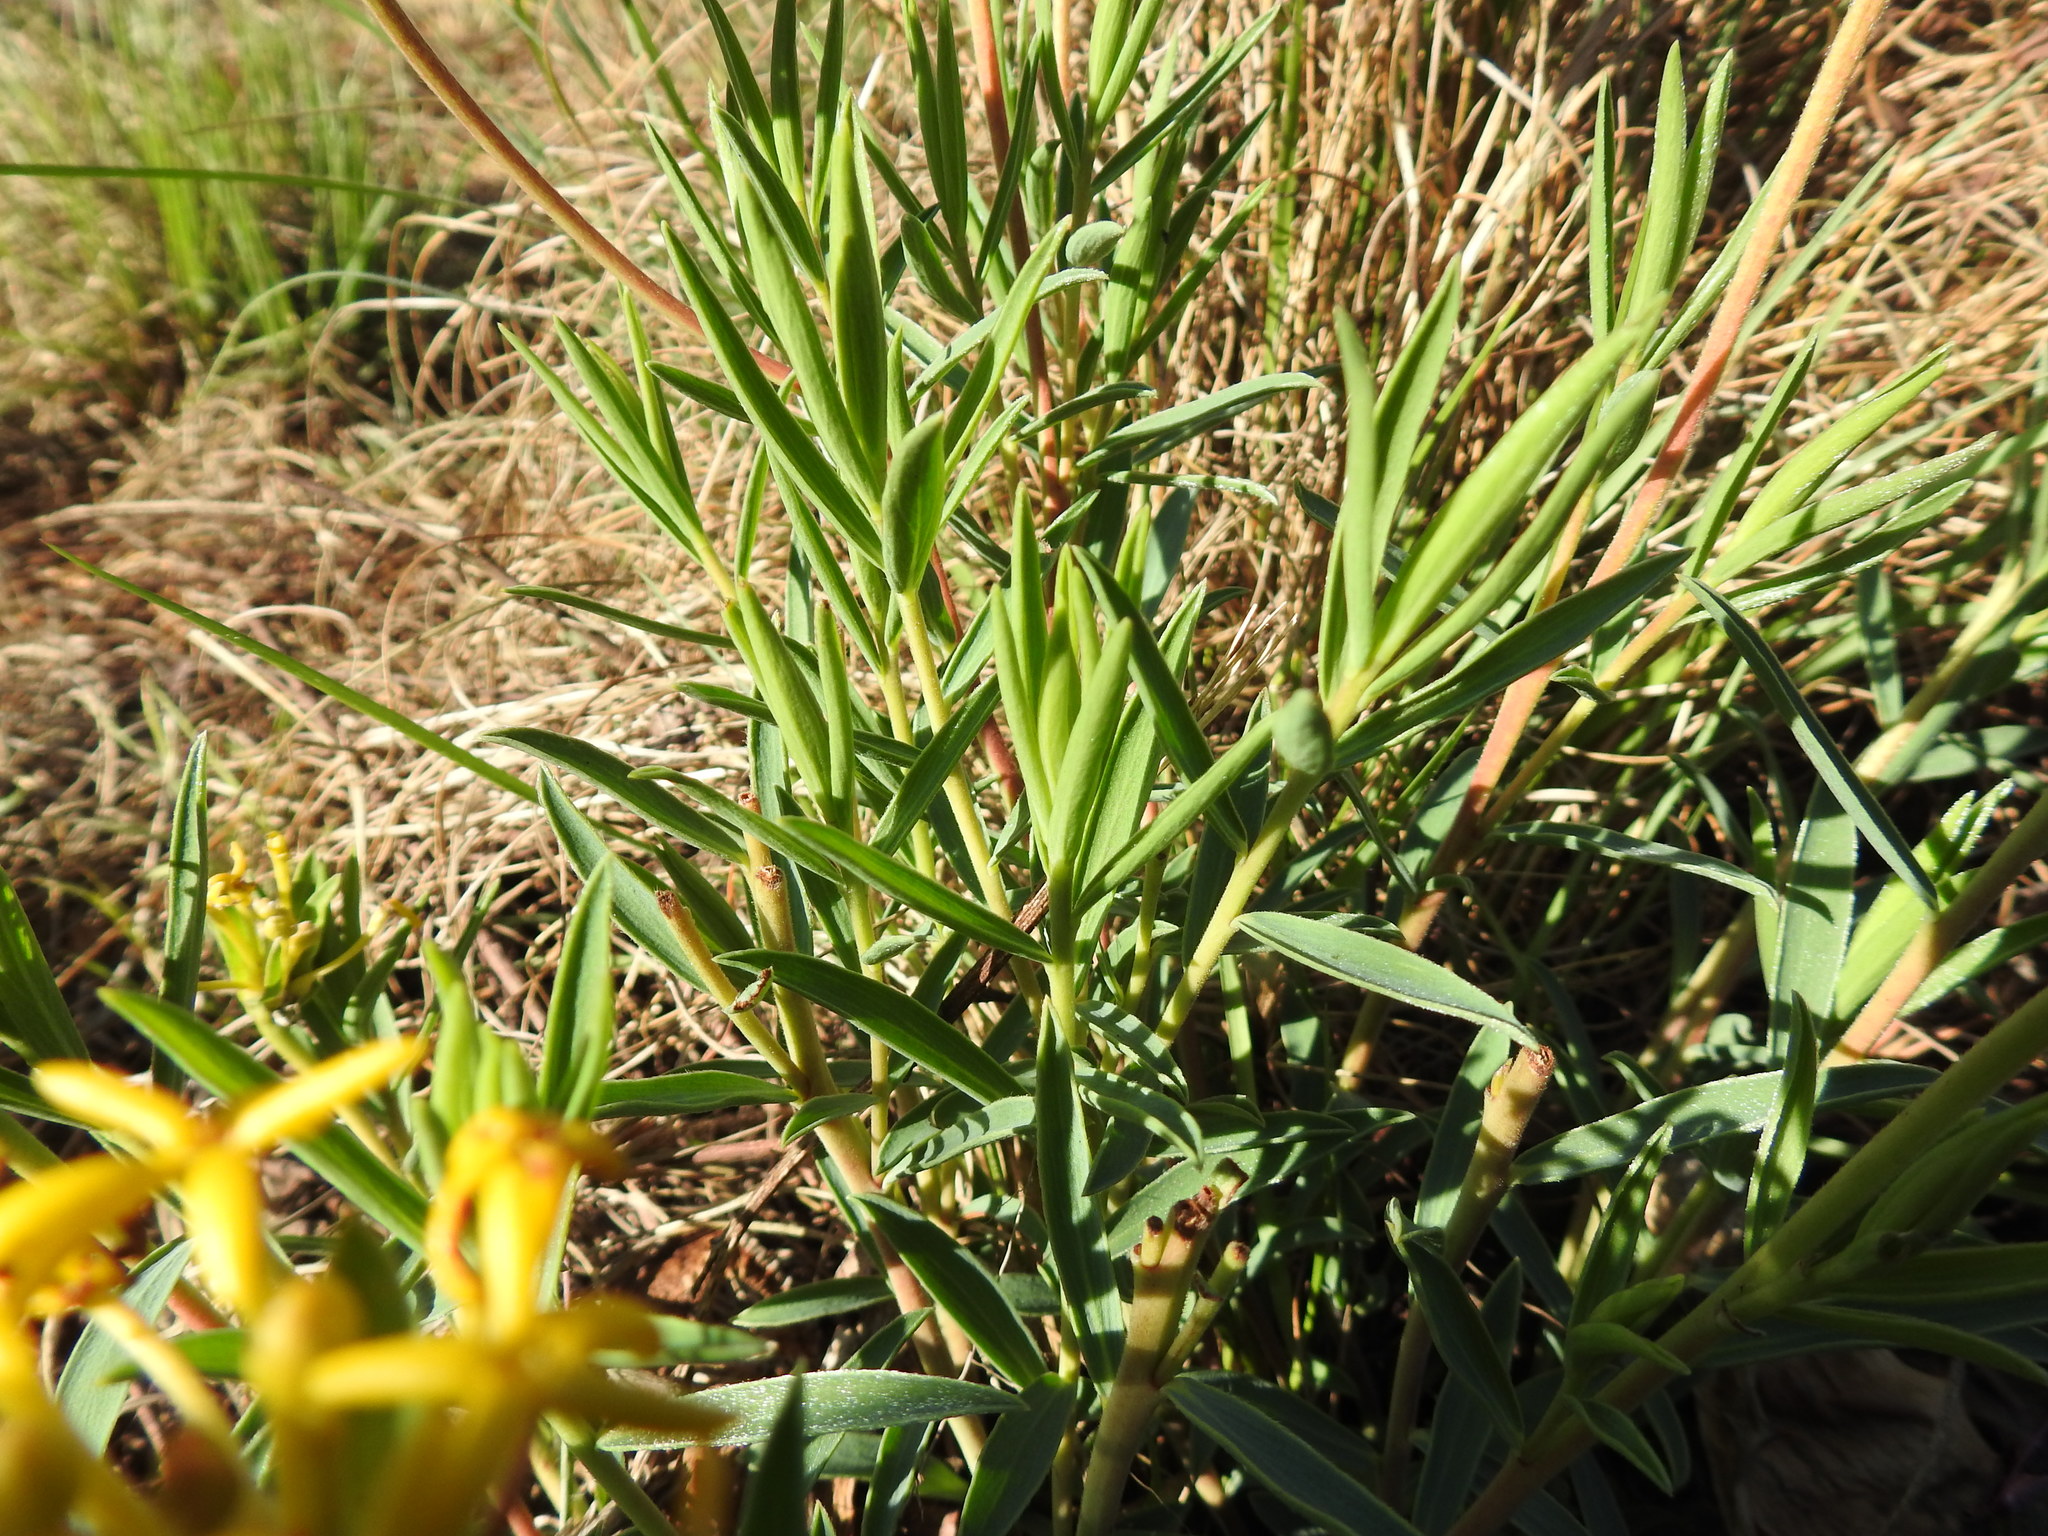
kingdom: Plantae
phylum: Tracheophyta
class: Magnoliopsida
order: Malvales
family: Thymelaeaceae
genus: Gnidia
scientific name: Gnidia capitata
